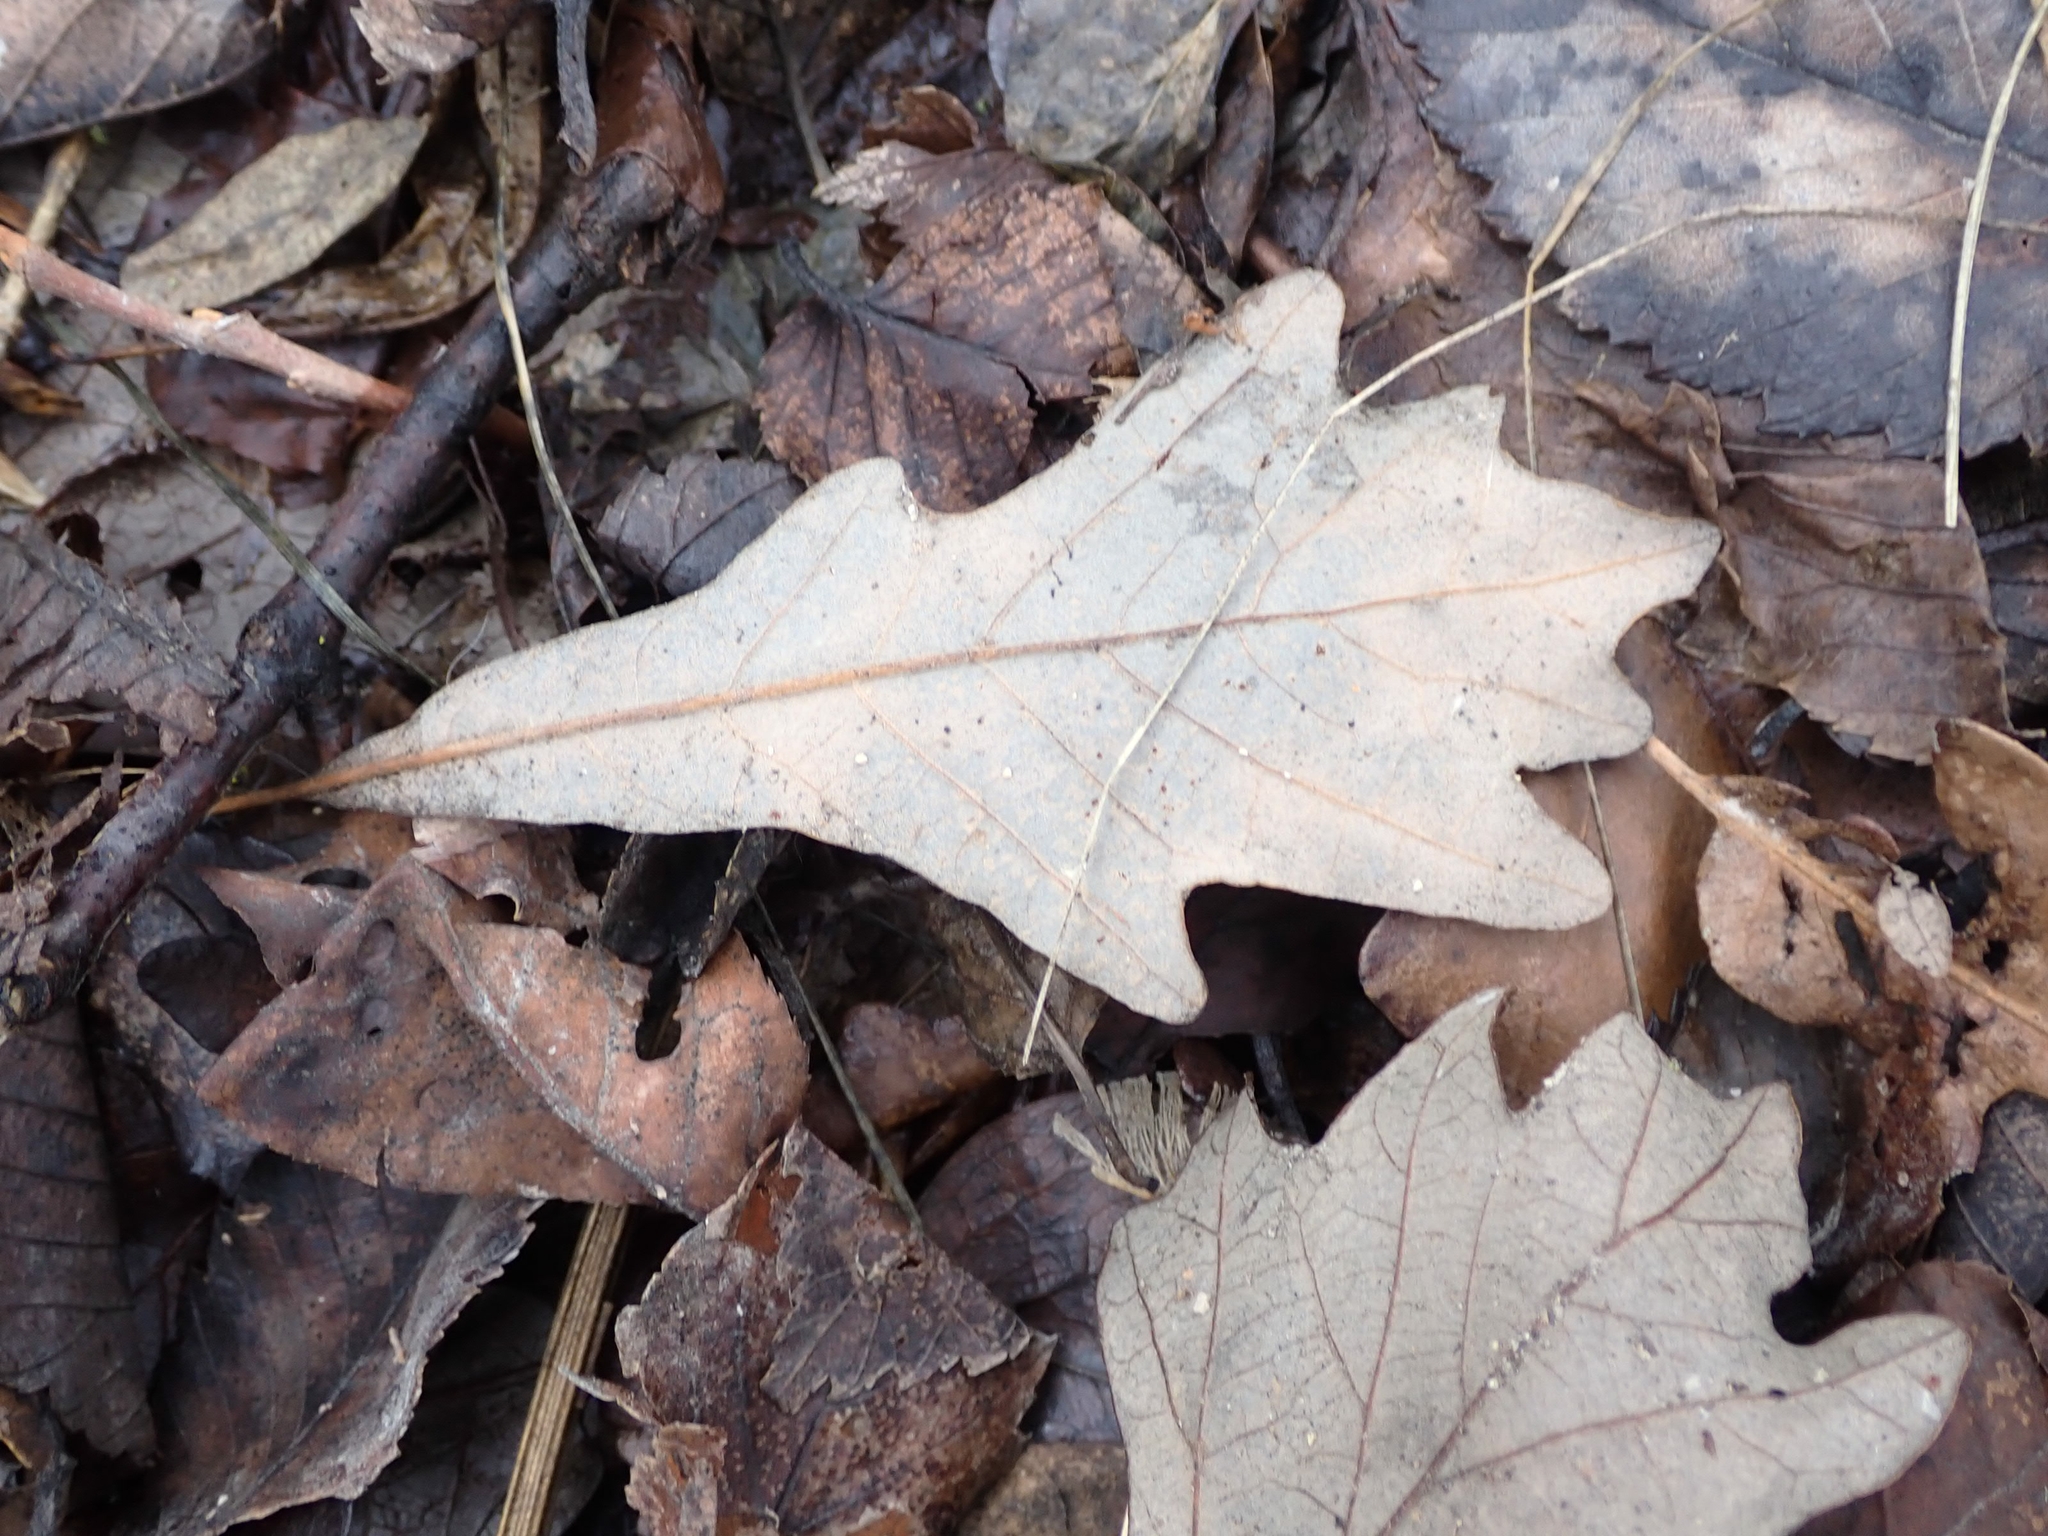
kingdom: Plantae
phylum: Tracheophyta
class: Magnoliopsida
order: Fagales
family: Fagaceae
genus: Quercus
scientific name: Quercus macrocarpa
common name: Bur oak
